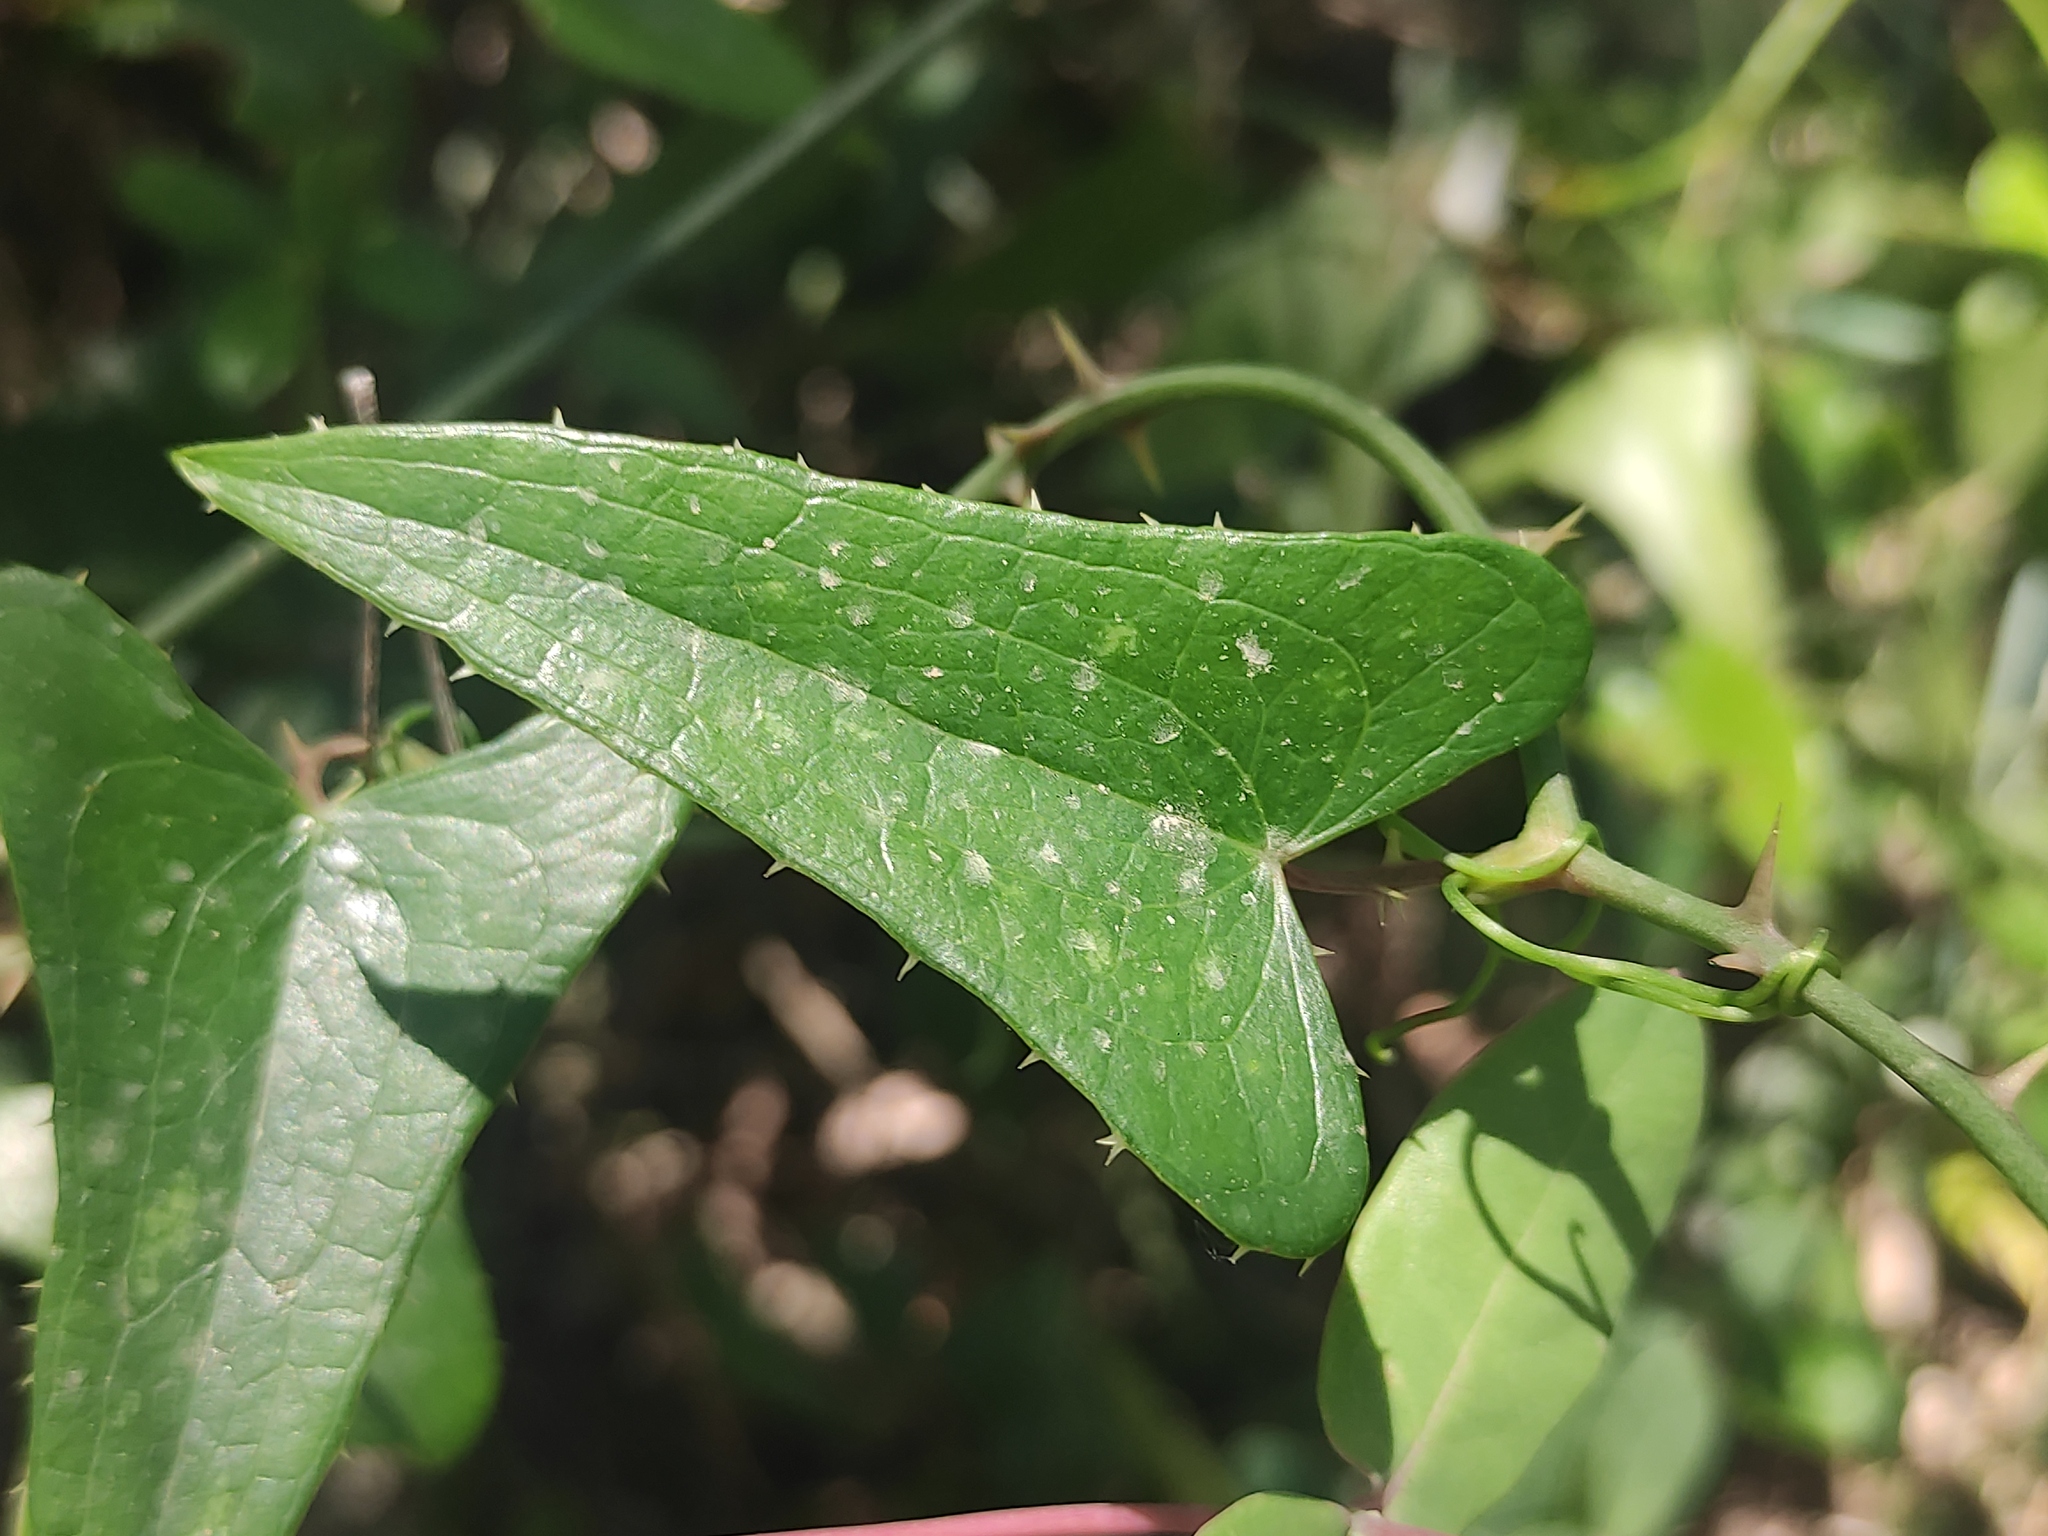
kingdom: Plantae
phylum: Tracheophyta
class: Liliopsida
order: Liliales
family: Smilacaceae
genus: Smilax
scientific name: Smilax aspera
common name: Common smilax
